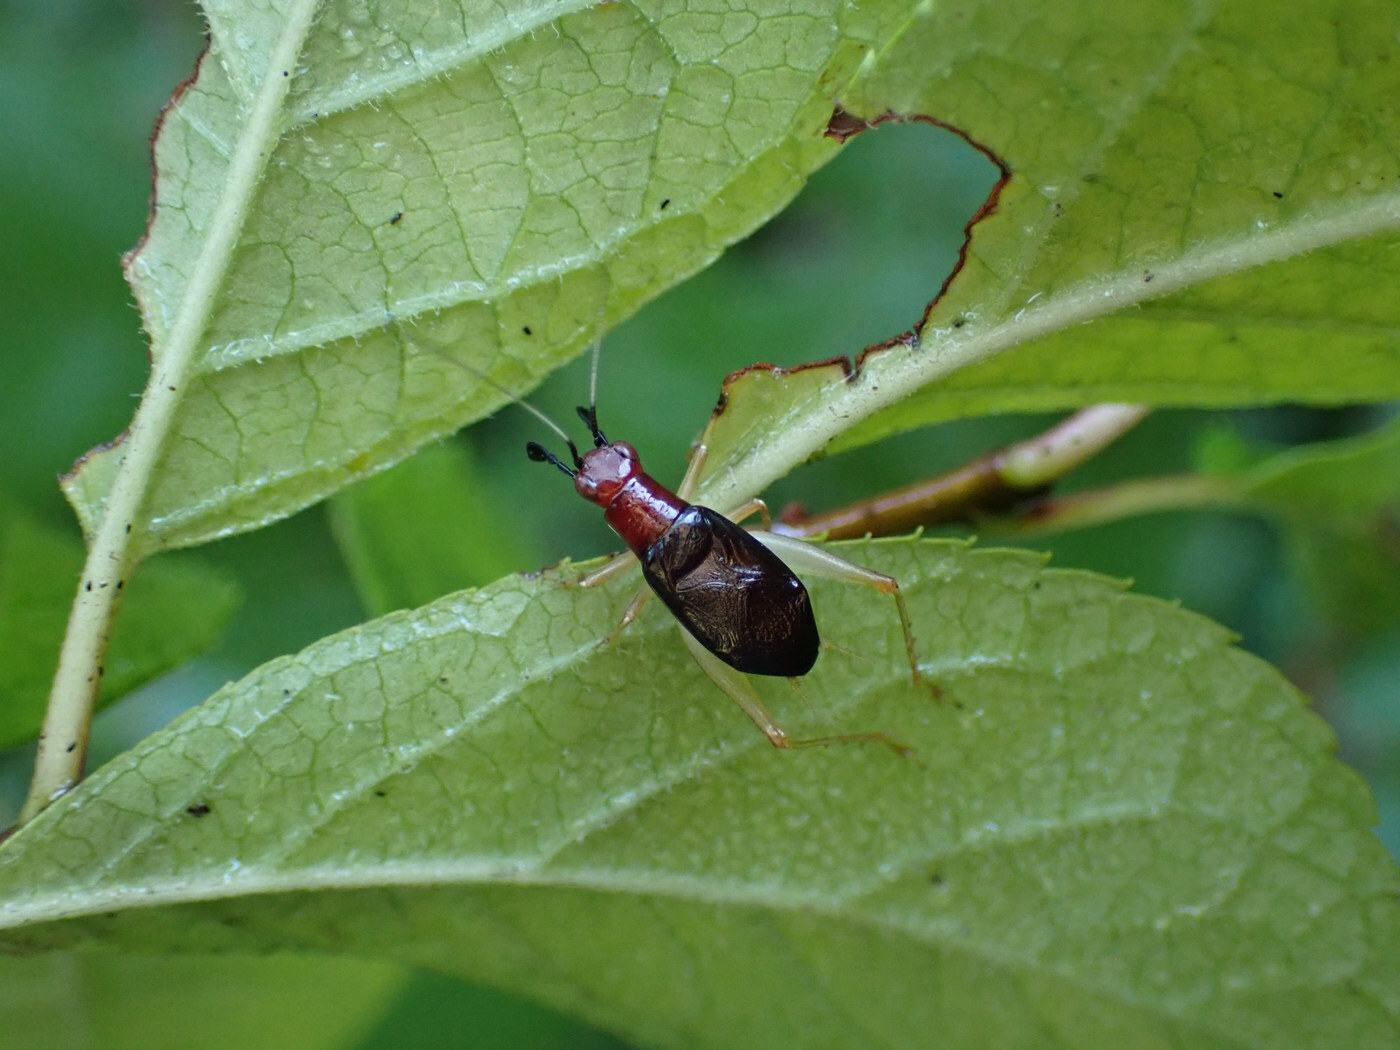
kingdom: Animalia
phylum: Arthropoda
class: Insecta
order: Orthoptera
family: Trigonidiidae
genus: Phyllopalpus
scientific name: Phyllopalpus pulchellus
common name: Handsome trig
